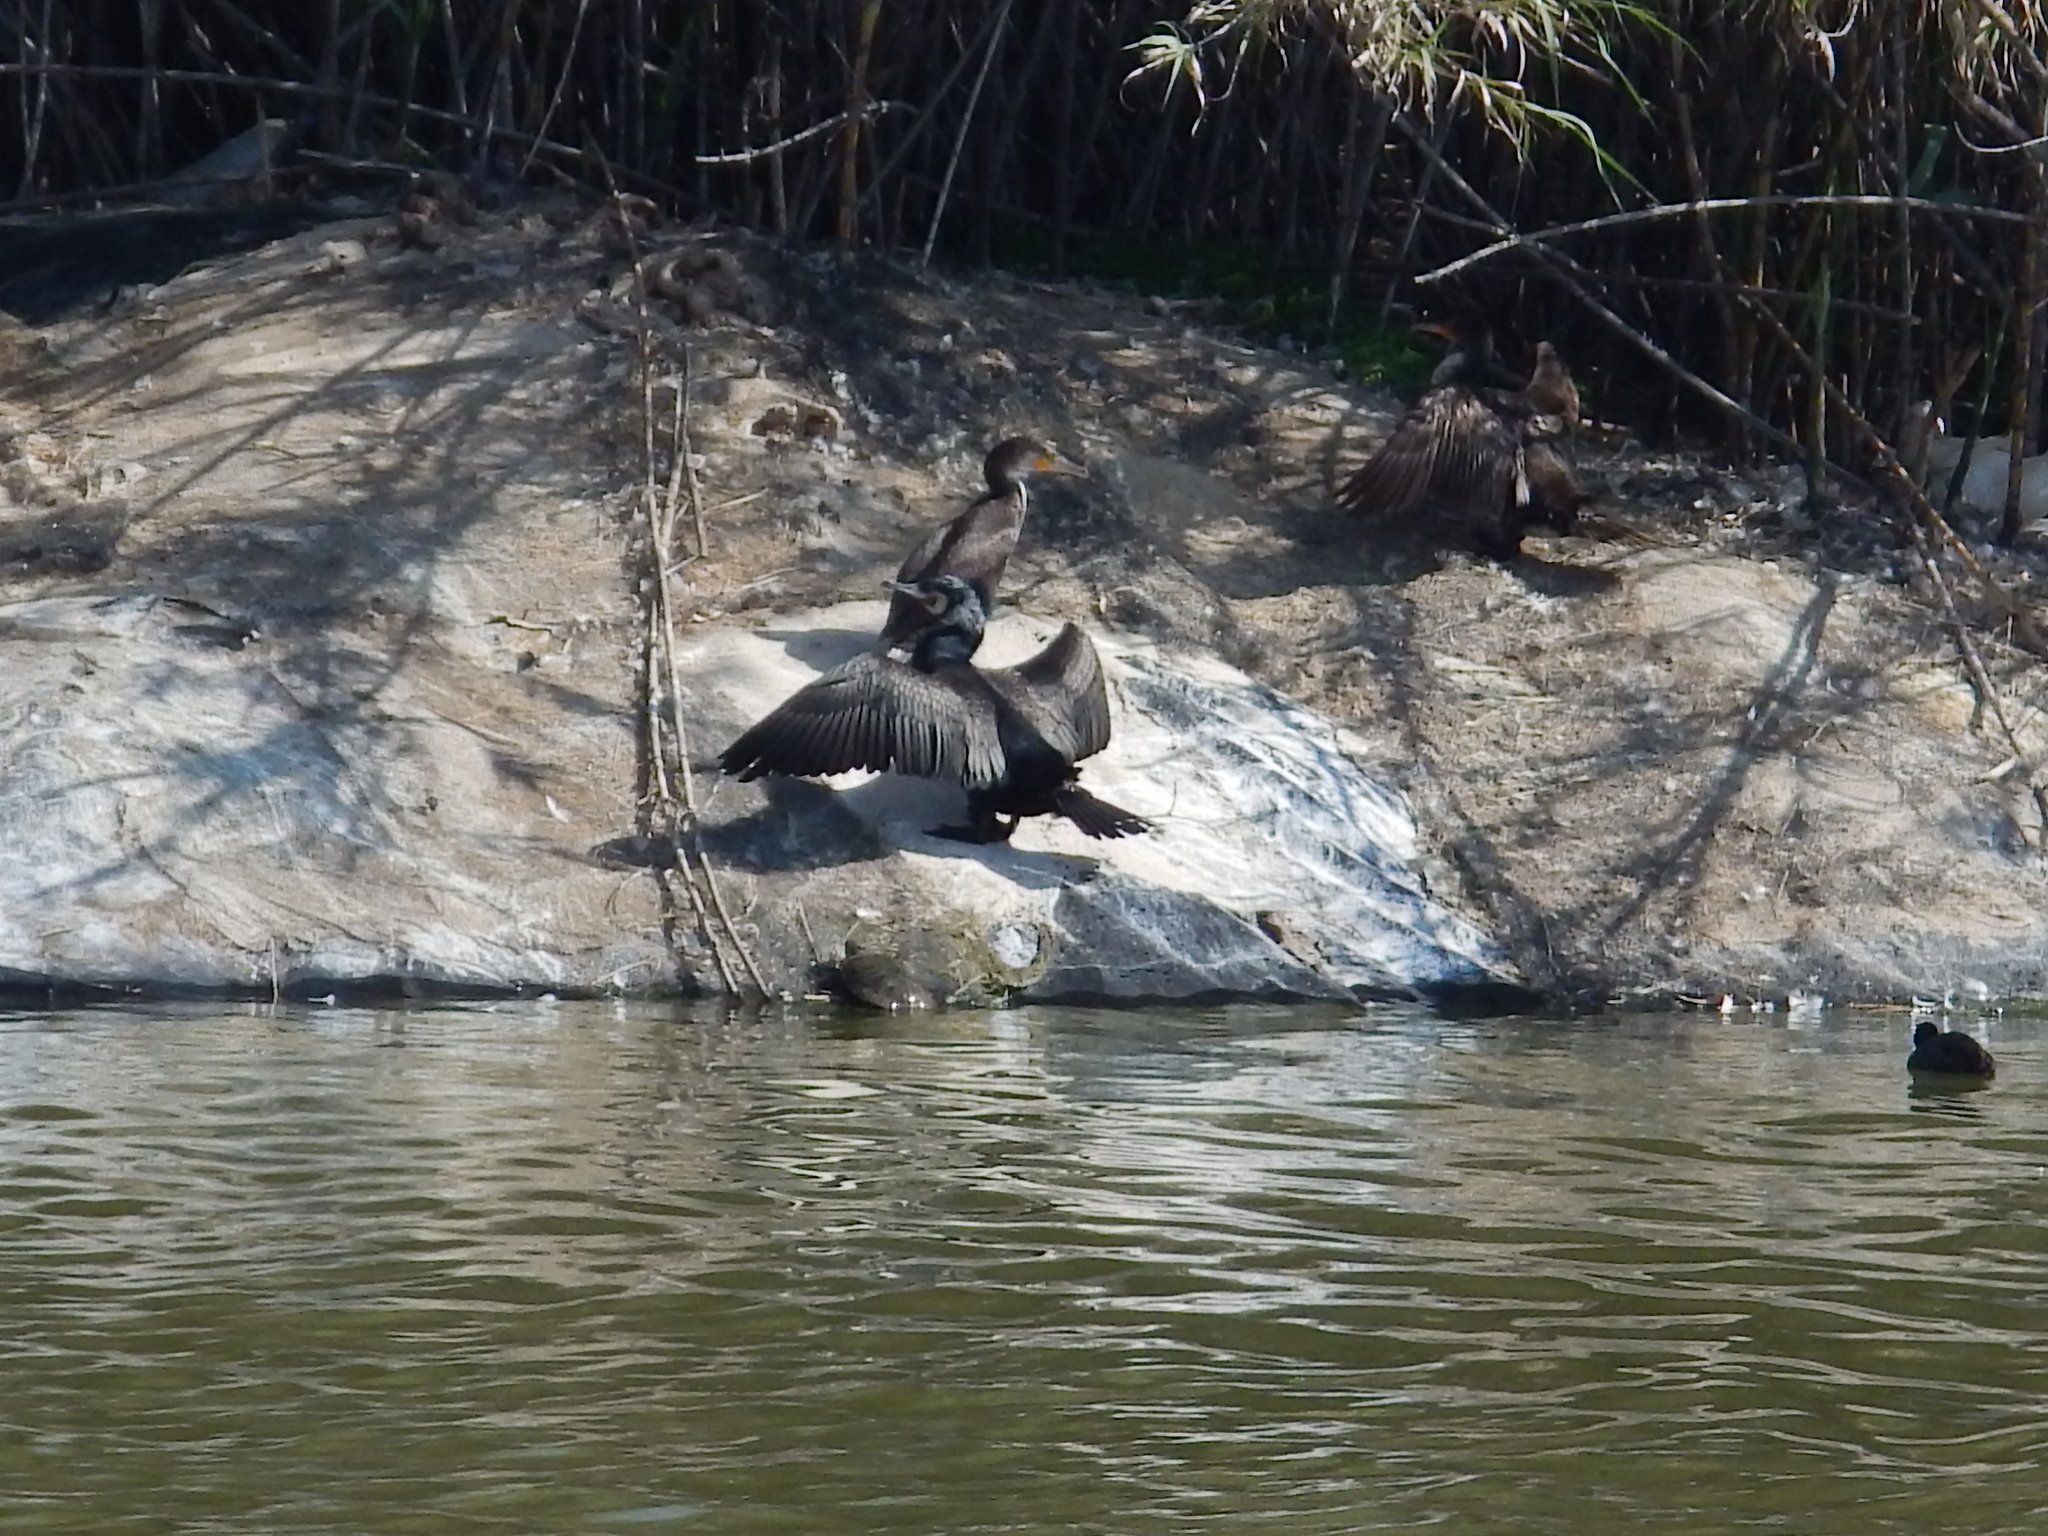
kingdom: Animalia
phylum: Chordata
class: Aves
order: Suliformes
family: Phalacrocoracidae
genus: Phalacrocorax
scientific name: Phalacrocorax carbo
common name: Great cormorant
